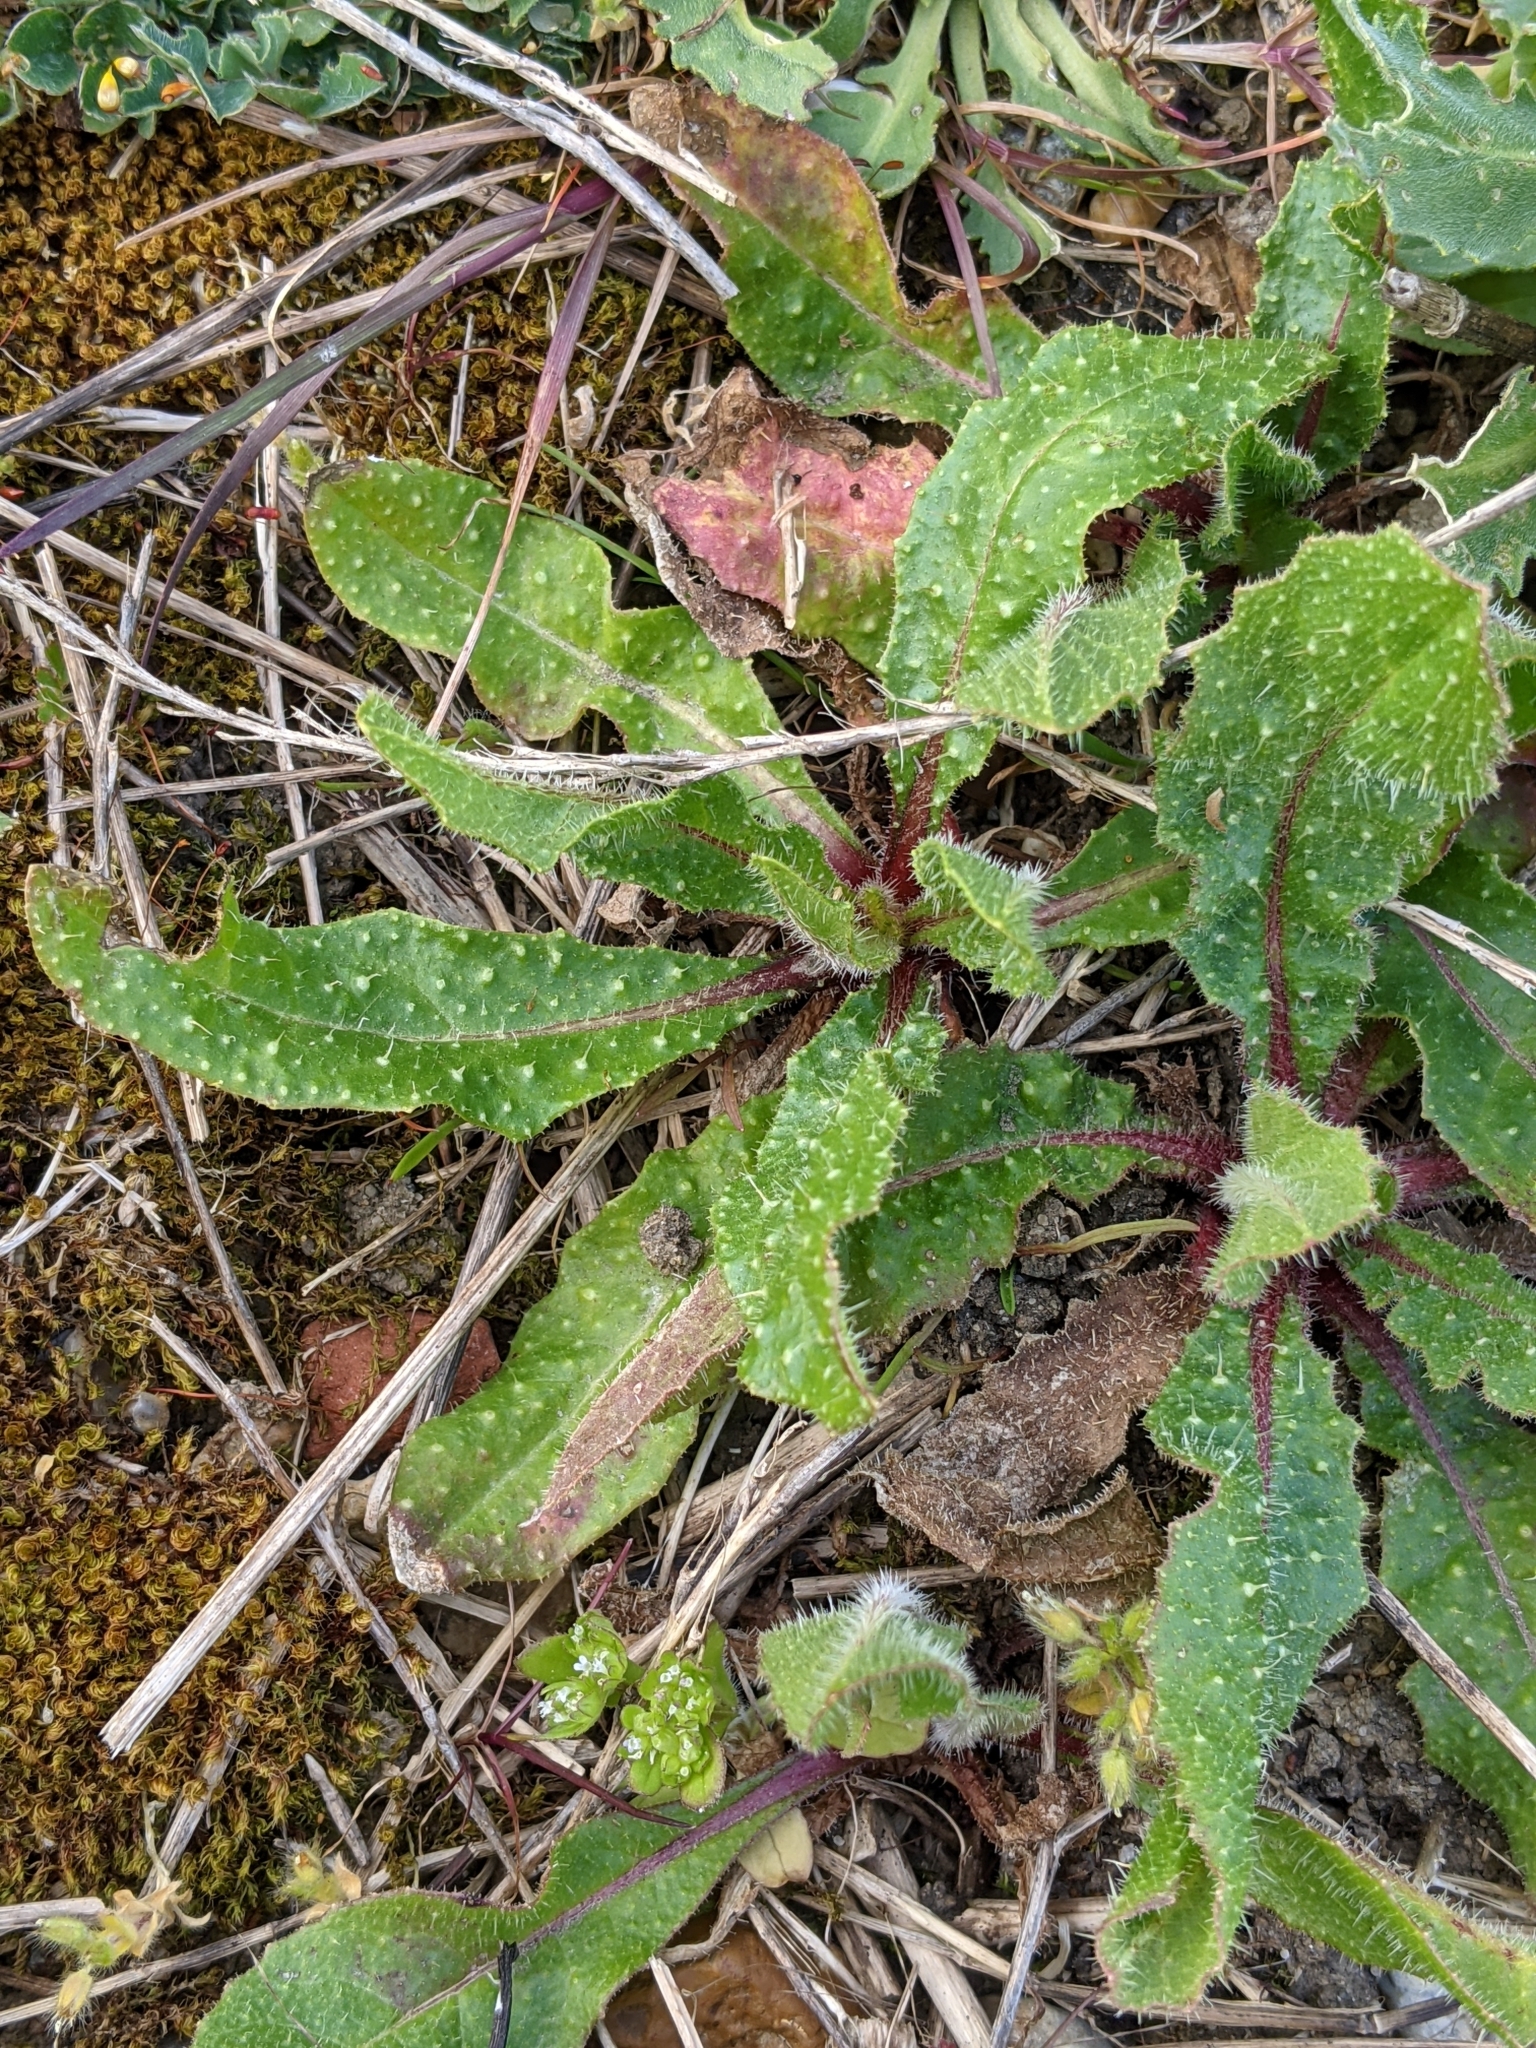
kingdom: Plantae
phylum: Tracheophyta
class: Magnoliopsida
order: Asterales
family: Asteraceae
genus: Helminthotheca
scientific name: Helminthotheca echioides
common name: Ox-tongue
